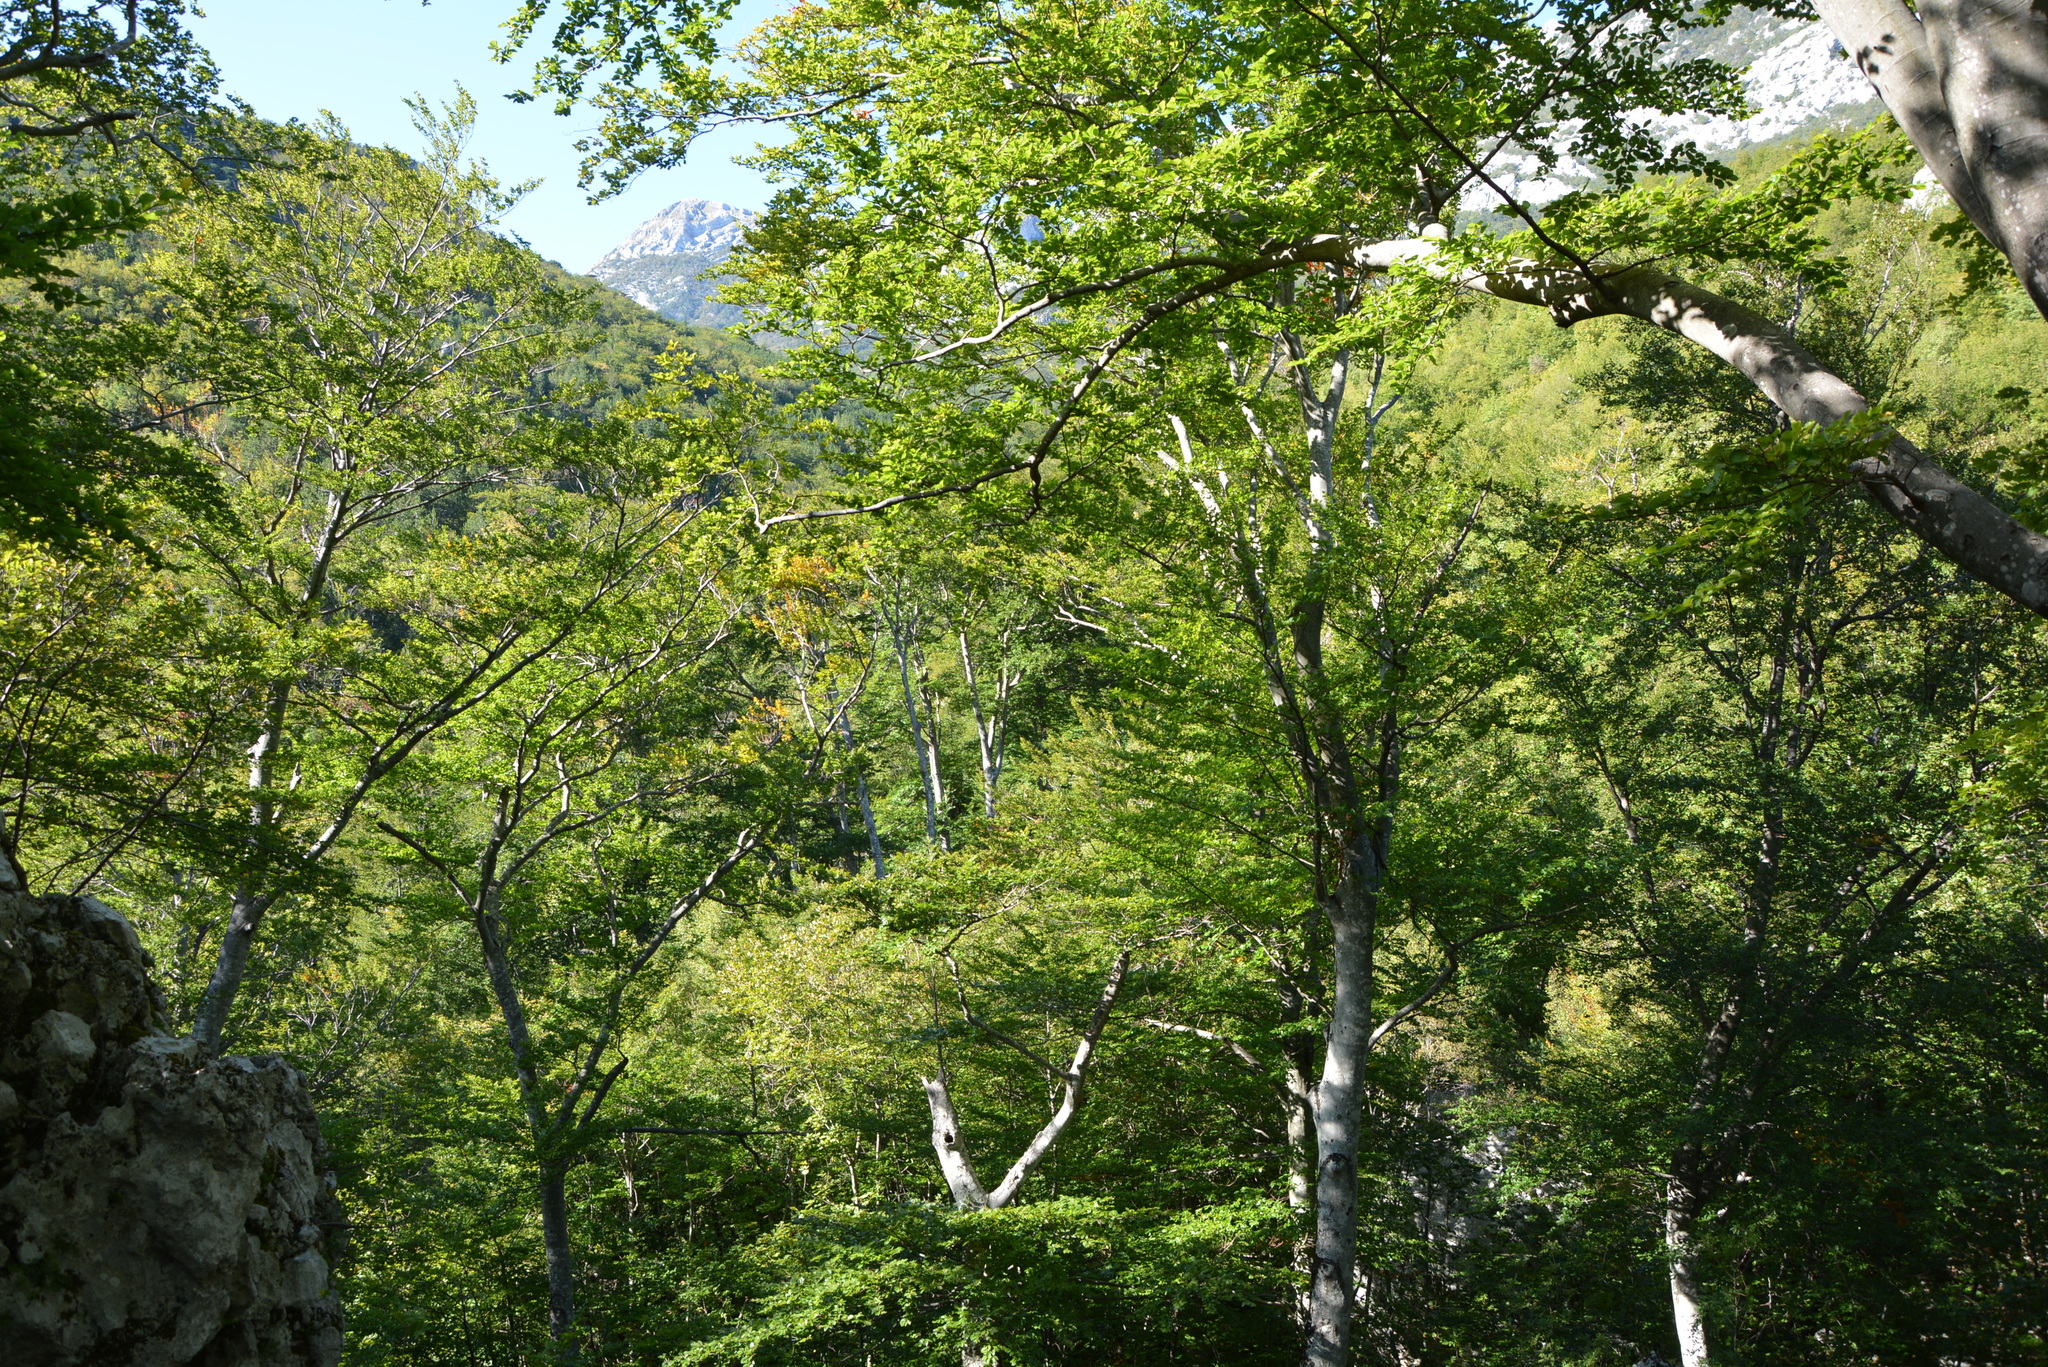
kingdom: Plantae
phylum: Tracheophyta
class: Magnoliopsida
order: Fagales
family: Fagaceae
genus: Fagus
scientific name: Fagus sylvatica
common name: Beech
